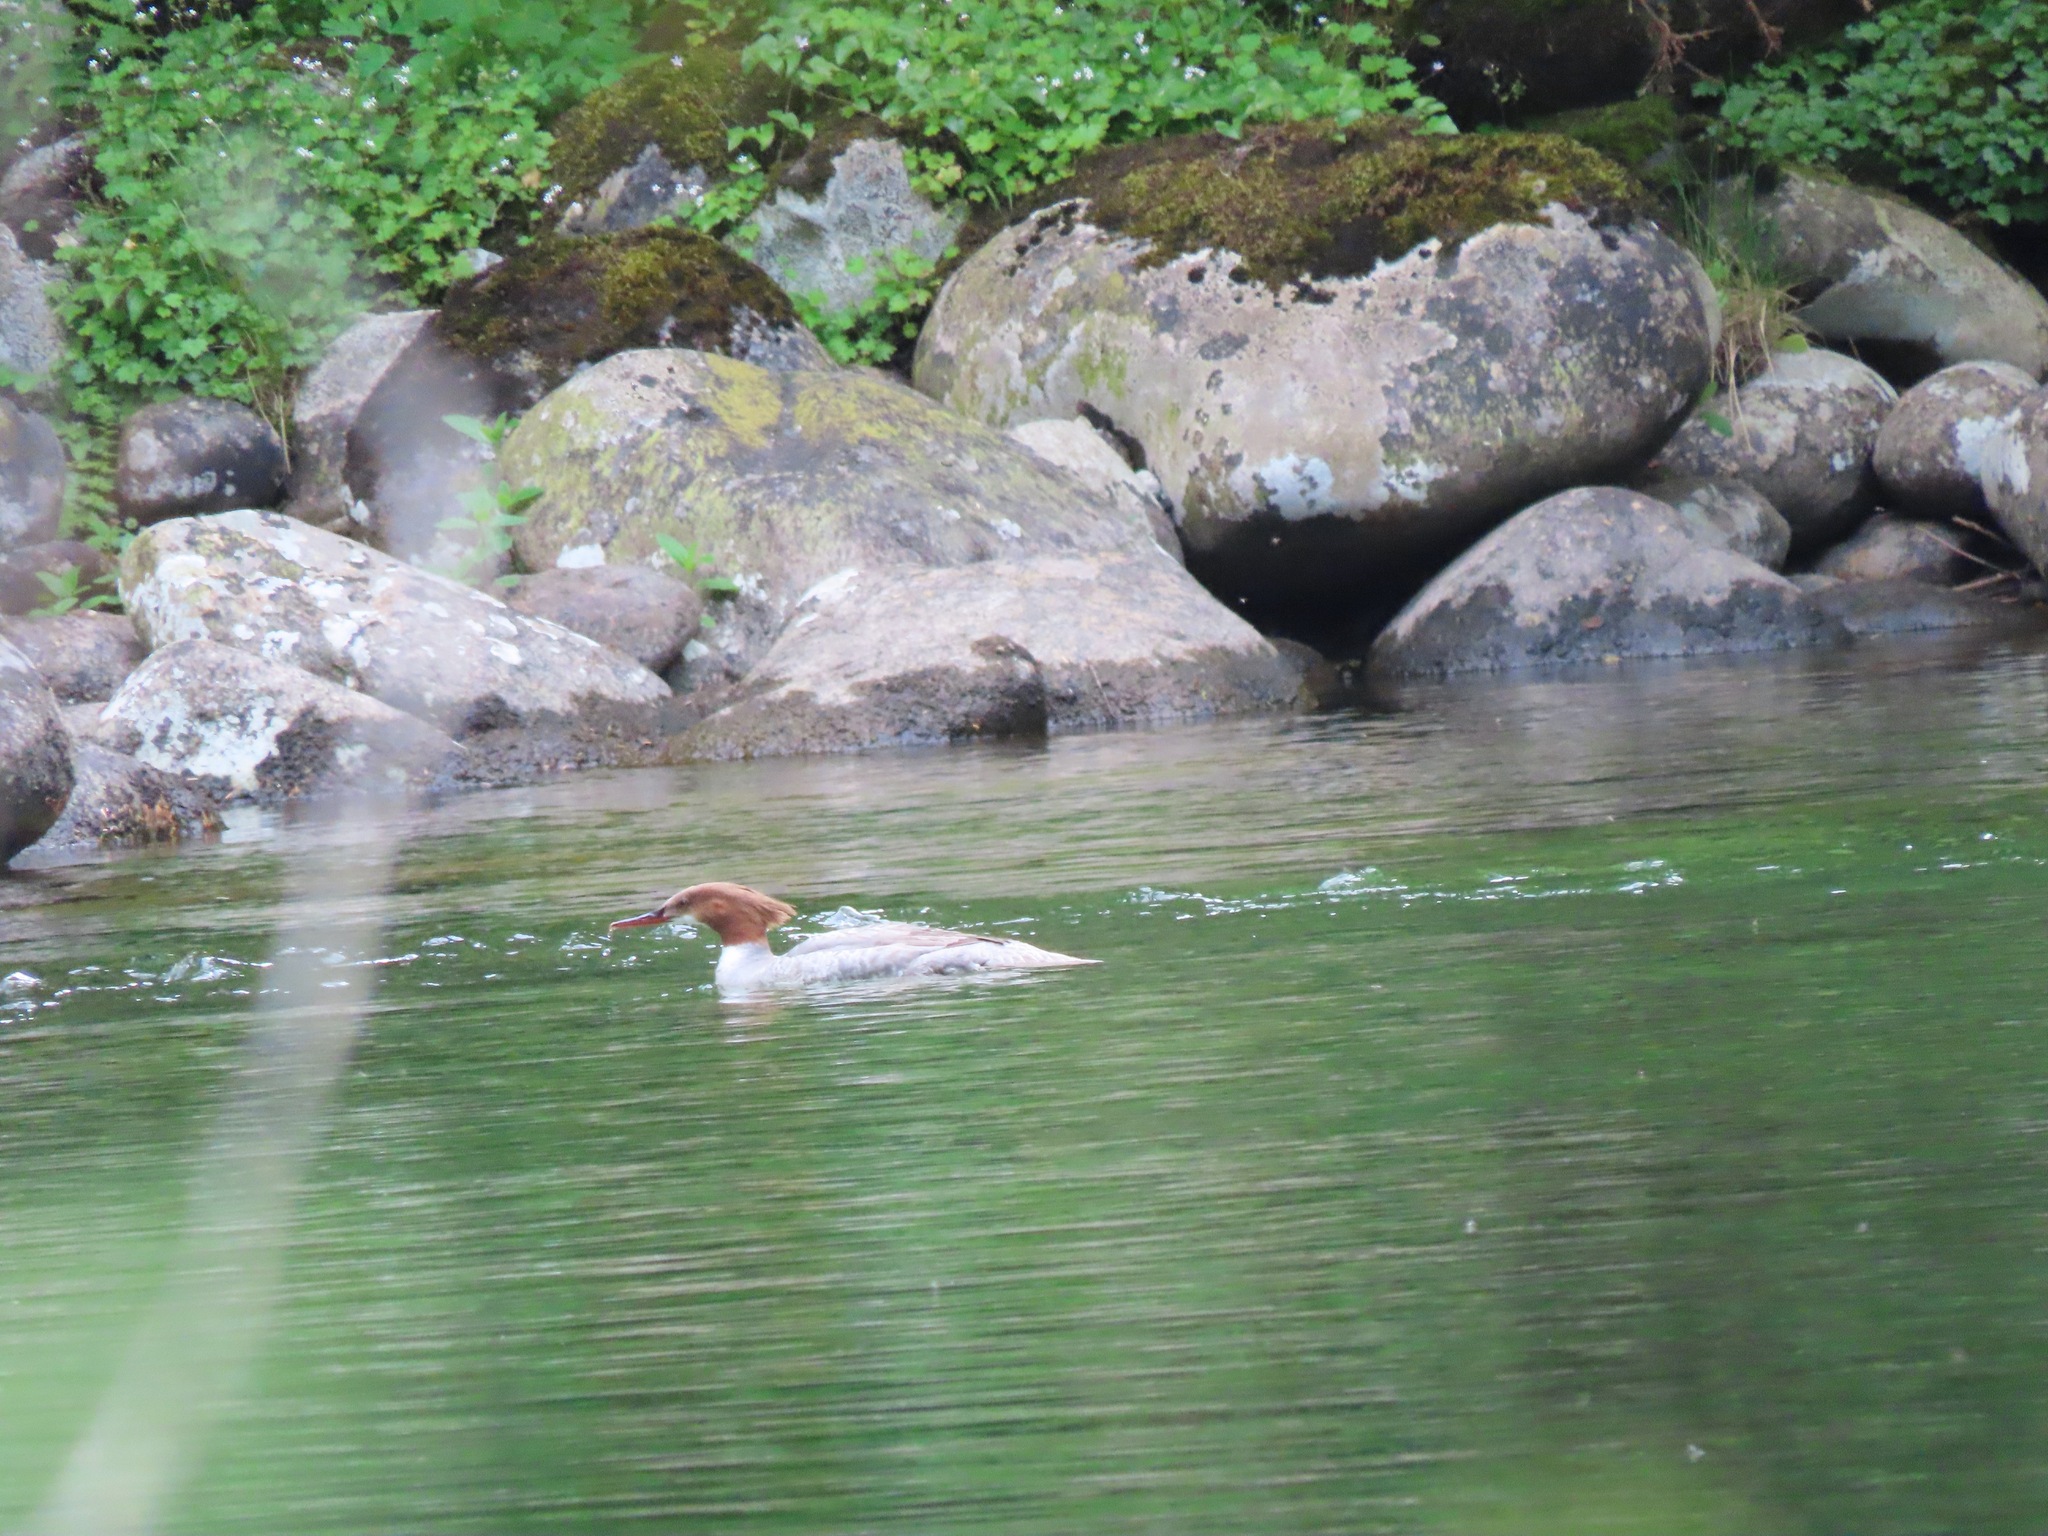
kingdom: Animalia
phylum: Chordata
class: Aves
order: Anseriformes
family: Anatidae
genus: Mergus
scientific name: Mergus merganser
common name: Common merganser
